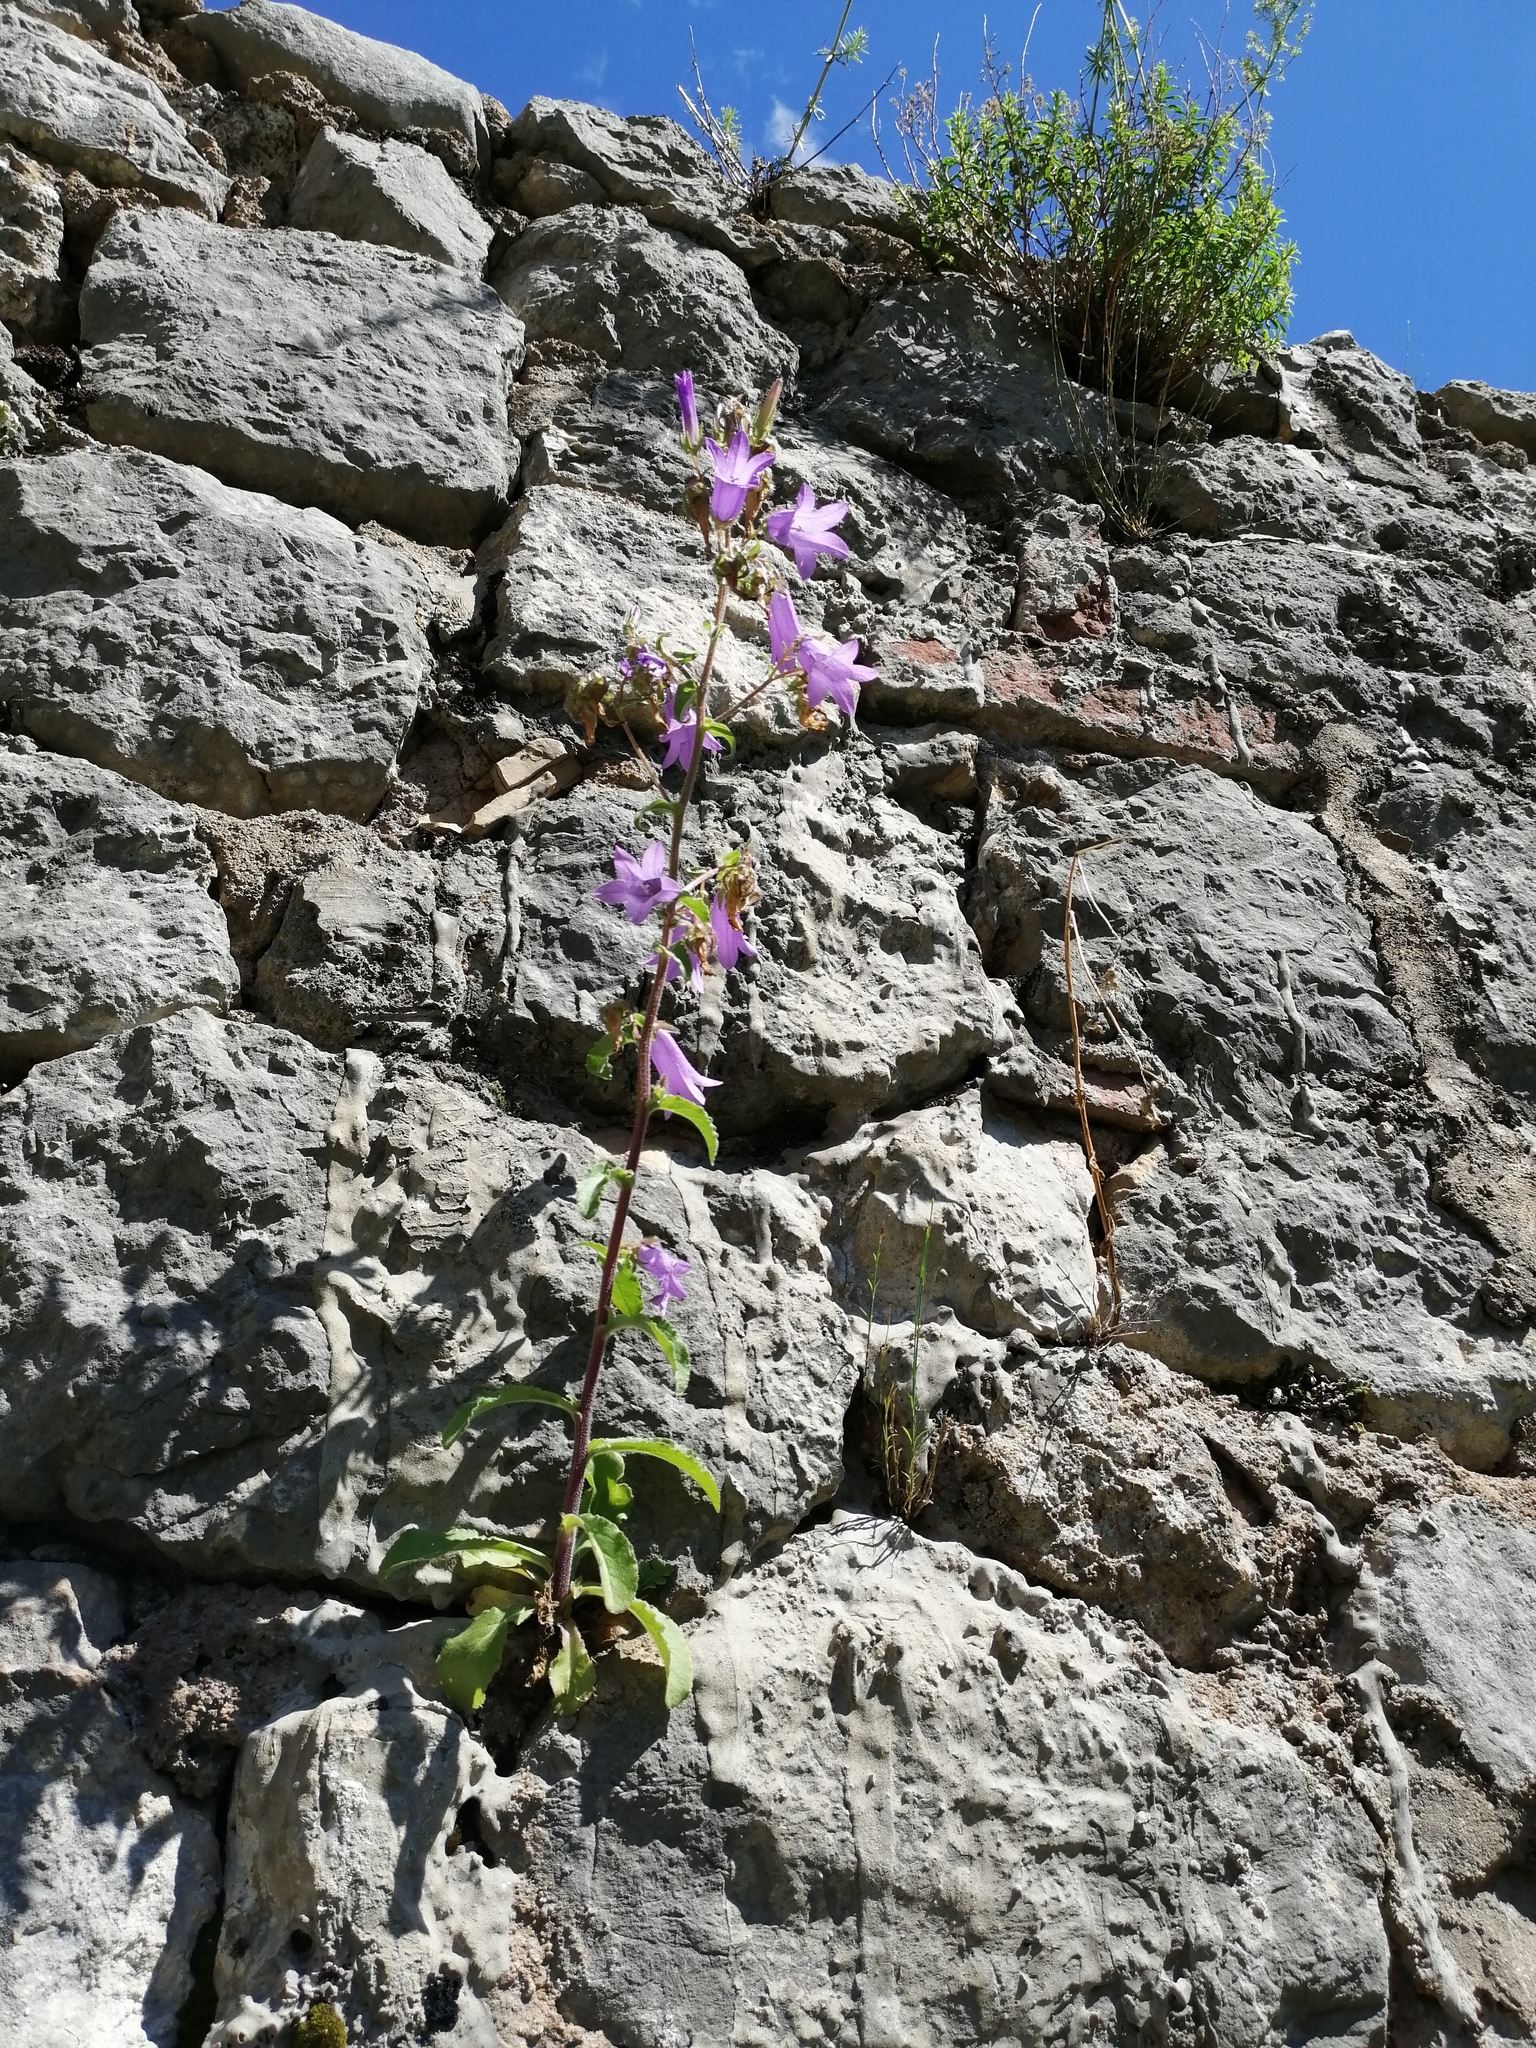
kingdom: Plantae
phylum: Tracheophyta
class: Magnoliopsida
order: Asterales
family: Campanulaceae
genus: Campanula
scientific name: Campanula sibirica
